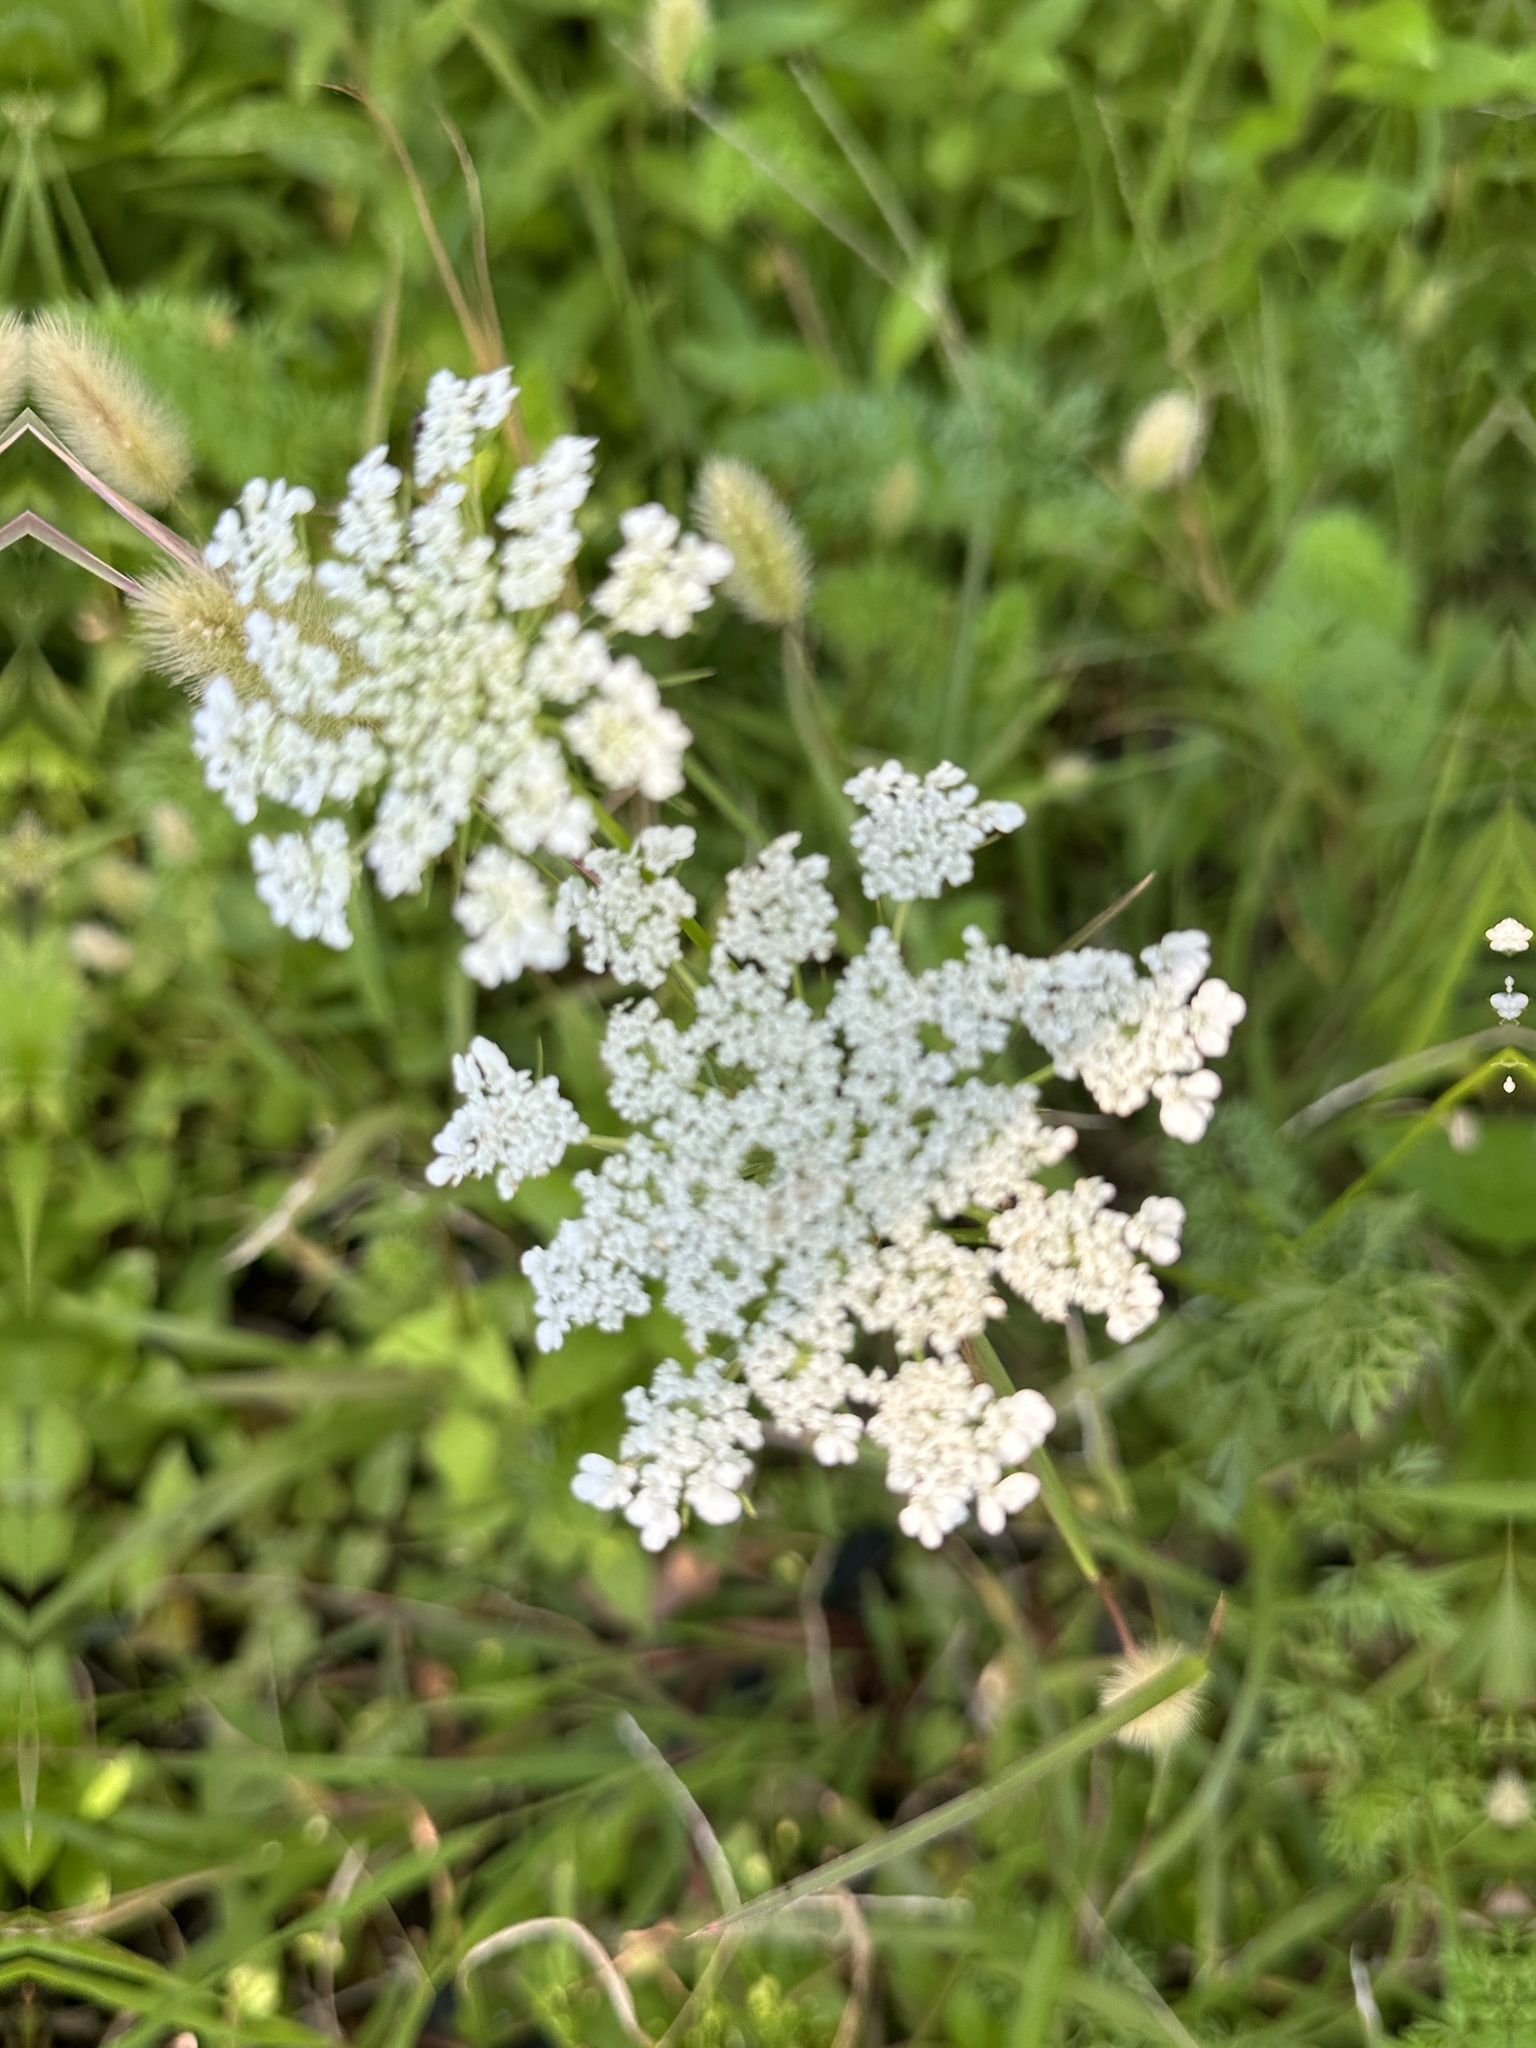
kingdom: Plantae
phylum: Tracheophyta
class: Magnoliopsida
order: Apiales
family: Apiaceae
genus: Daucus
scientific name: Daucus carota
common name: Wild carrot
